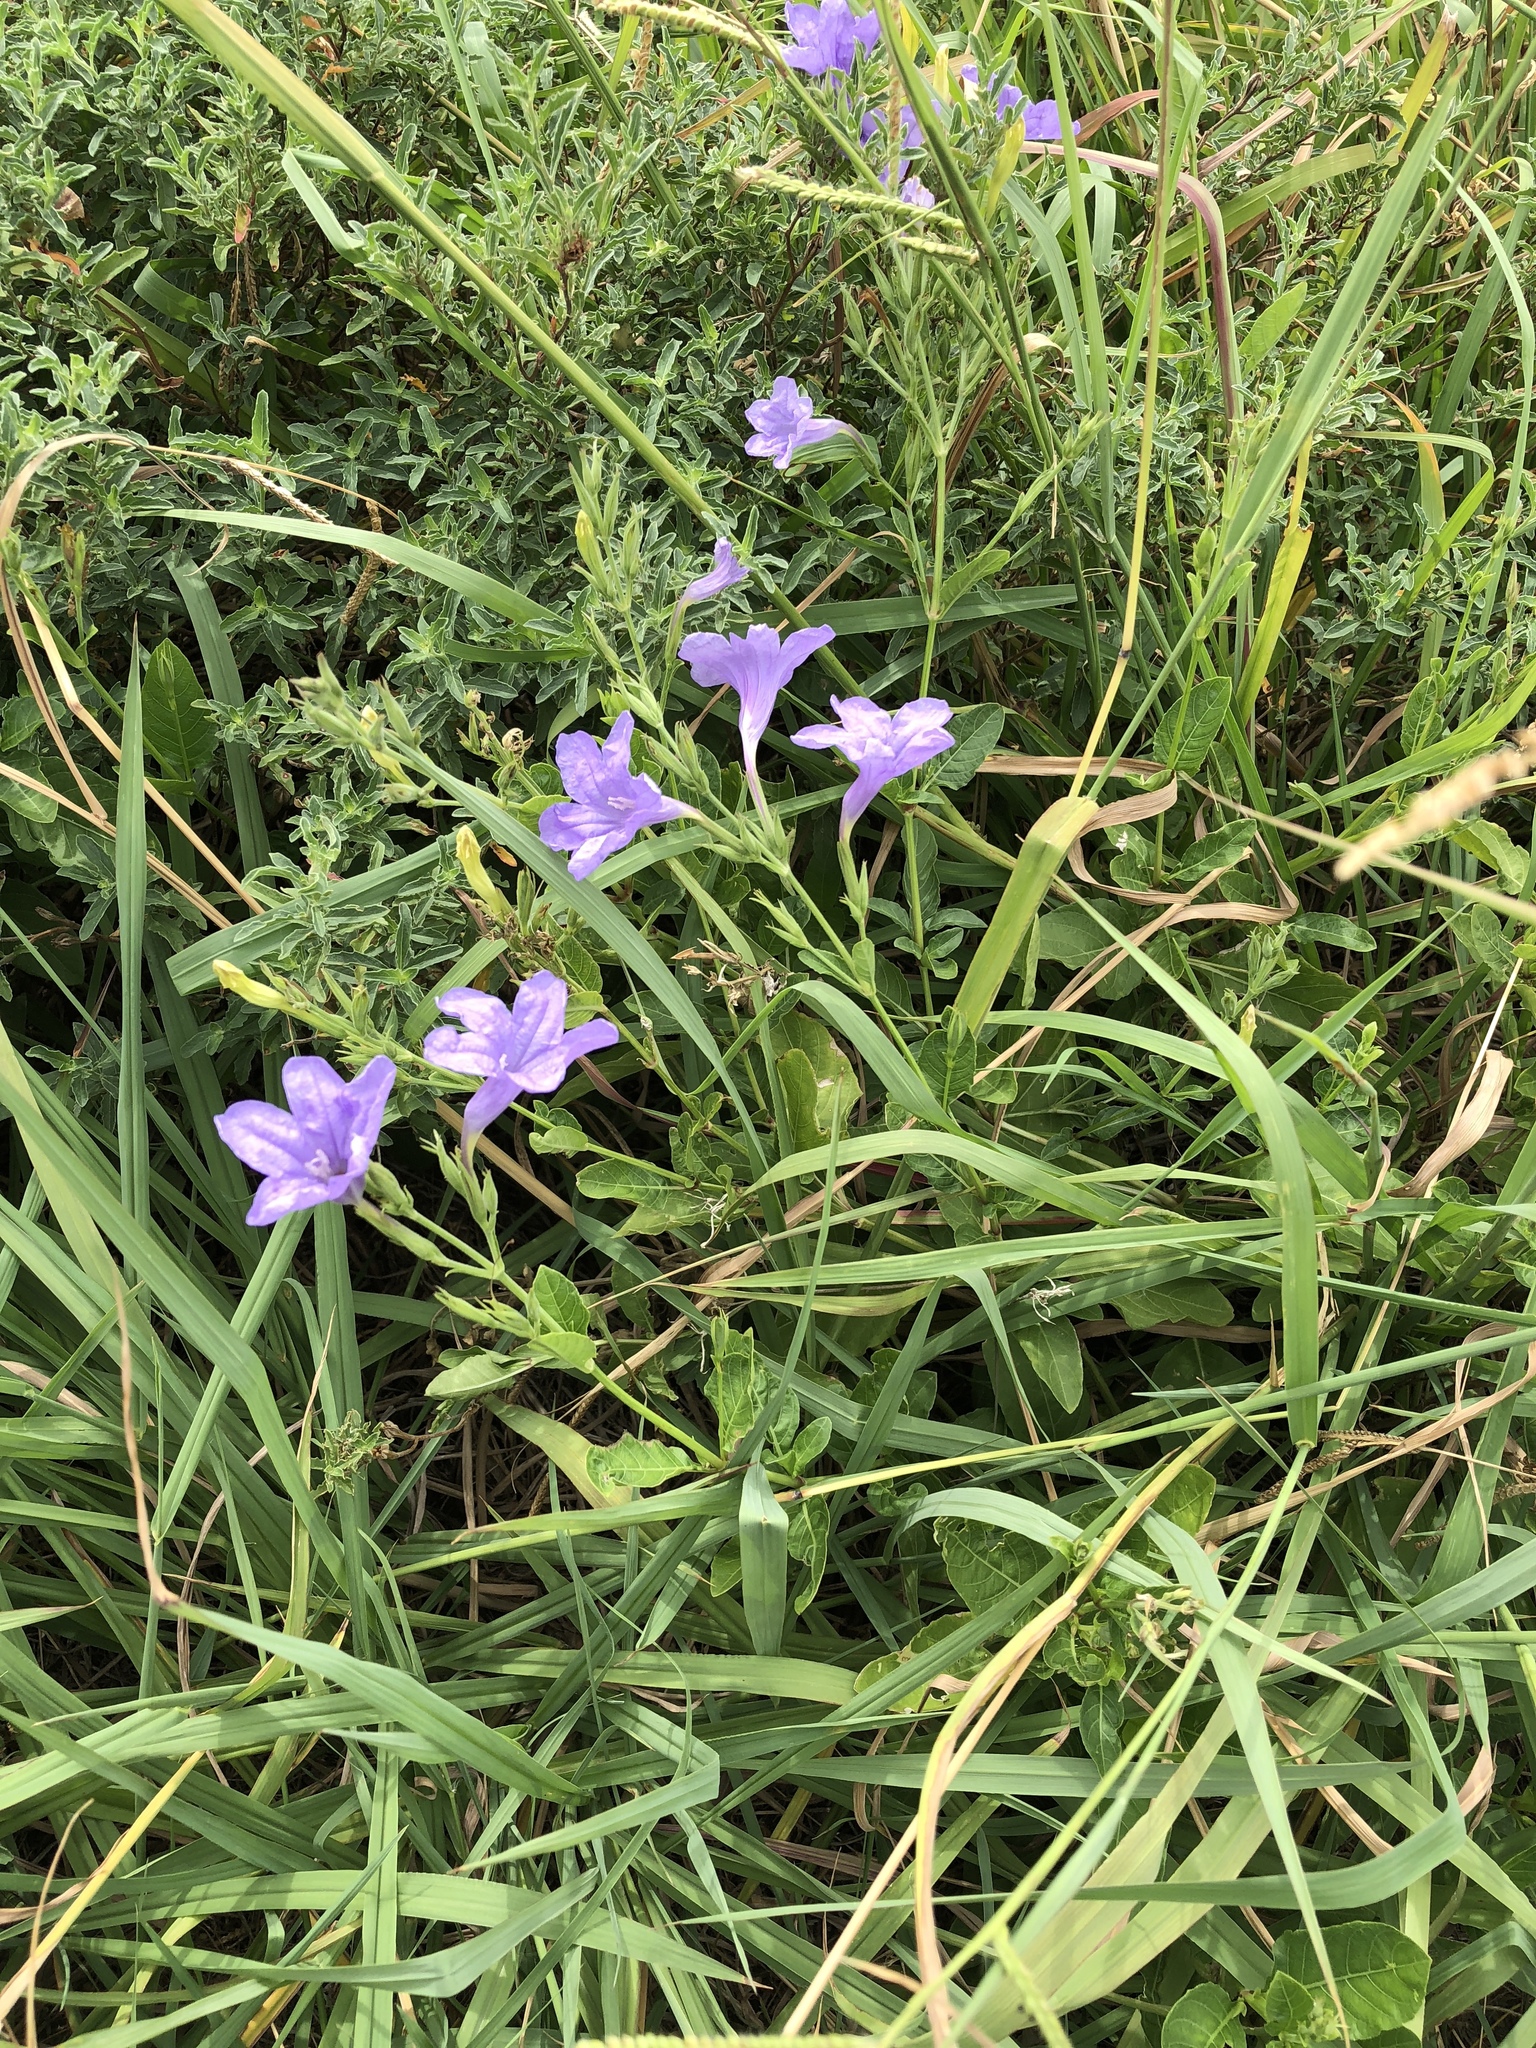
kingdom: Plantae
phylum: Tracheophyta
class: Magnoliopsida
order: Lamiales
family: Acanthaceae
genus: Ruellia
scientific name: Ruellia ciliatiflora
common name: Hairyflower wild petunia
